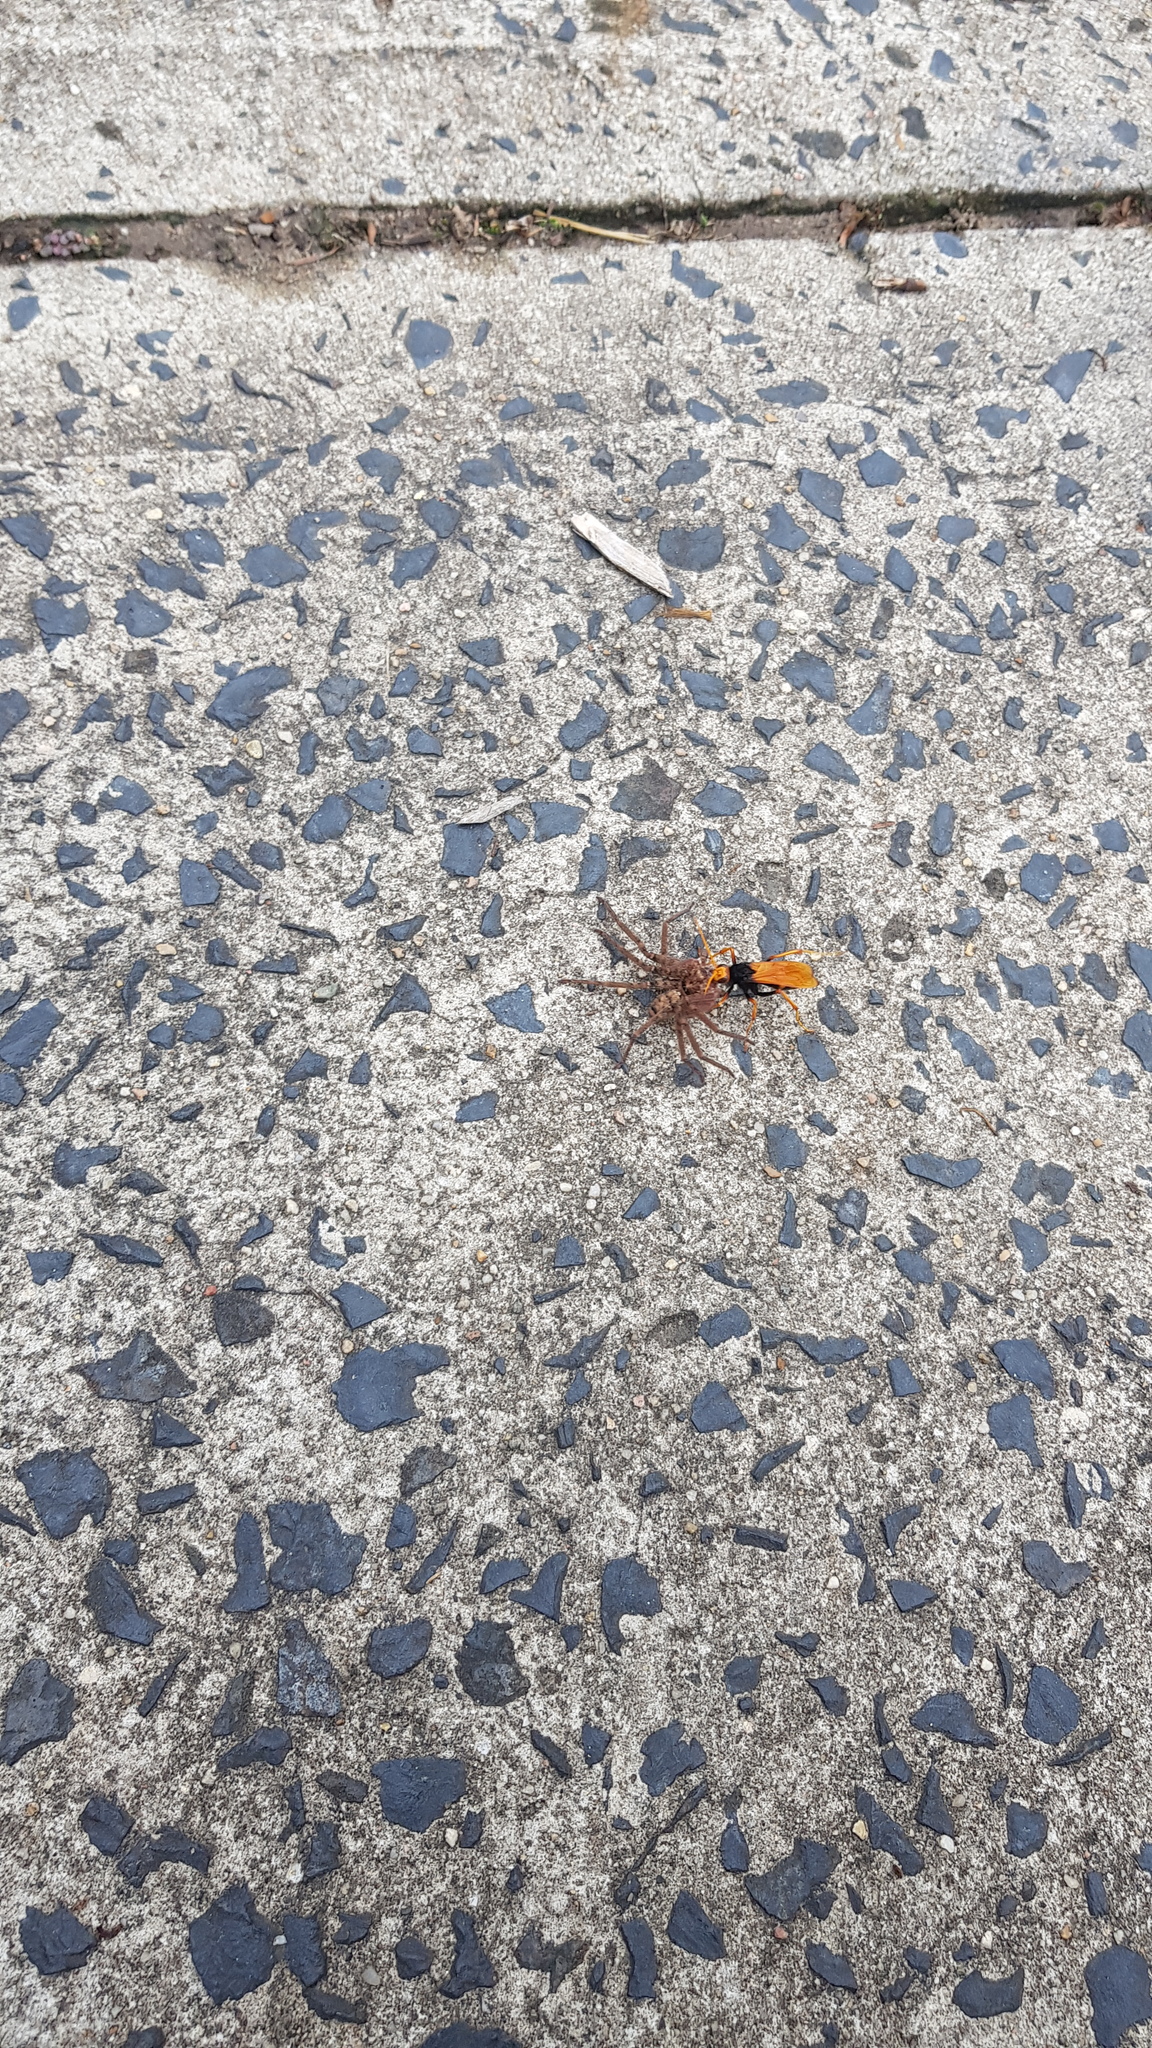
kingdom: Animalia
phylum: Arthropoda
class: Arachnida
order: Araneae
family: Sparassidae
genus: Heteropoda
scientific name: Heteropoda jugulans
